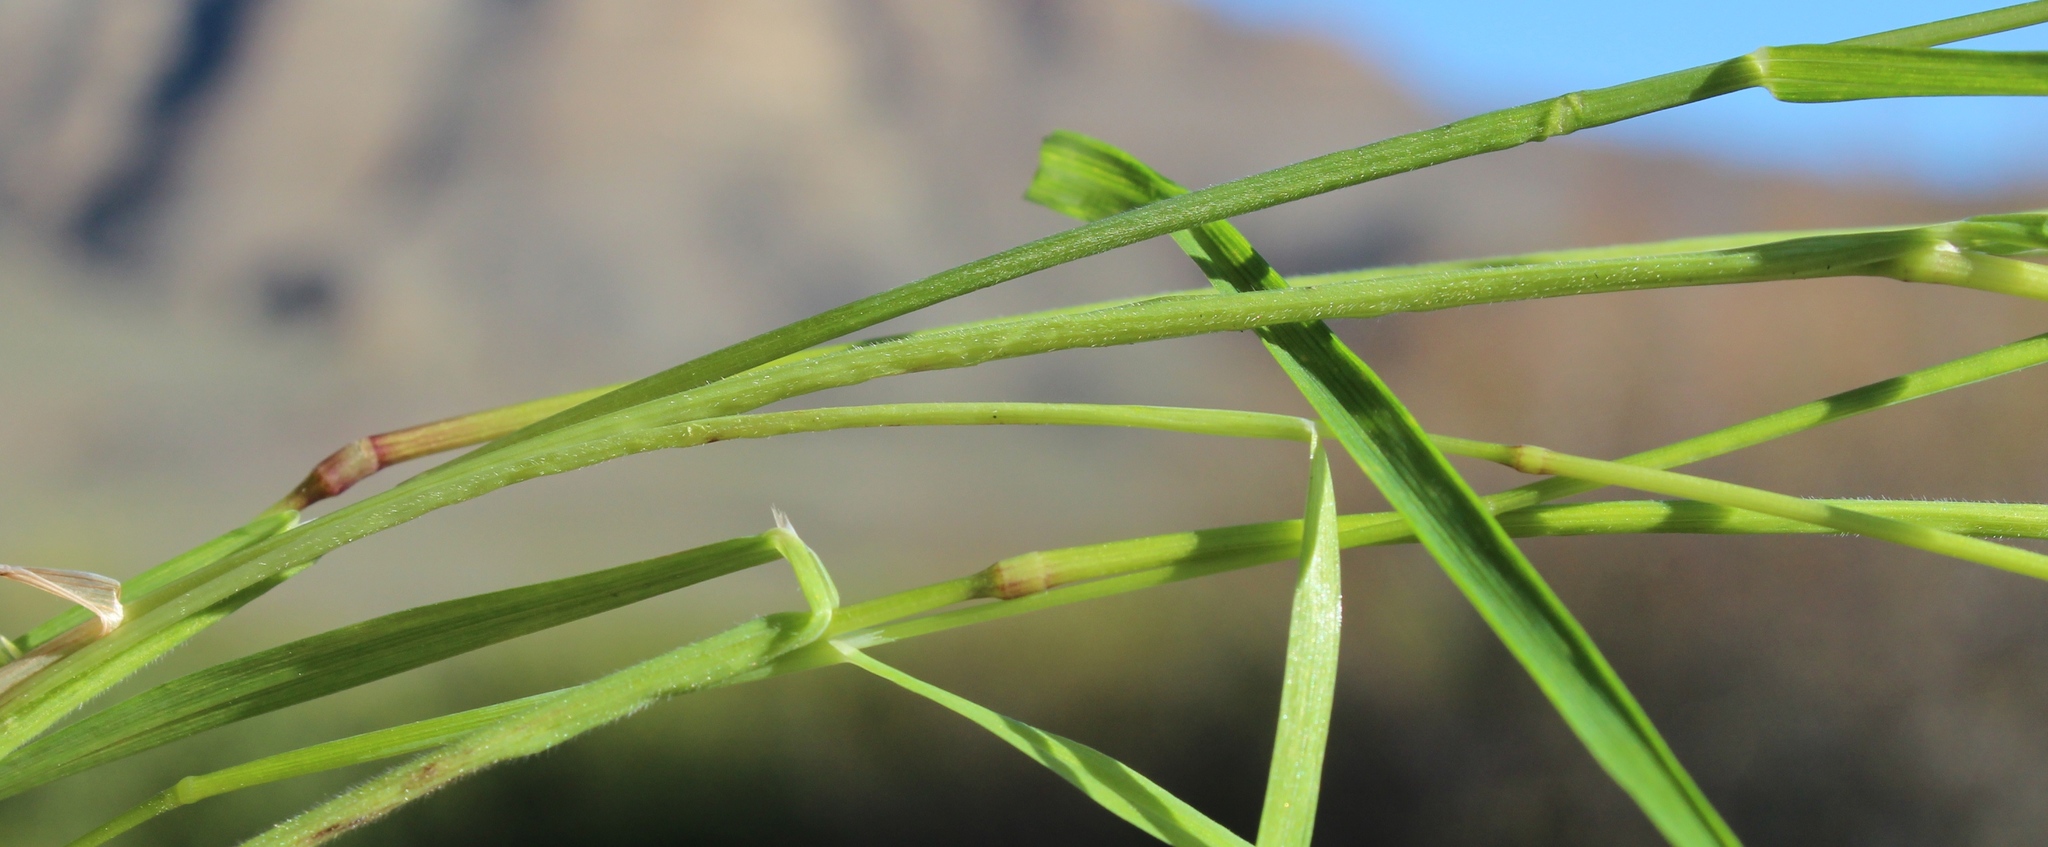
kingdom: Plantae
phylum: Tracheophyta
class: Liliopsida
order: Poales
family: Poaceae
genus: Bromus
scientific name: Bromus pectinatus
